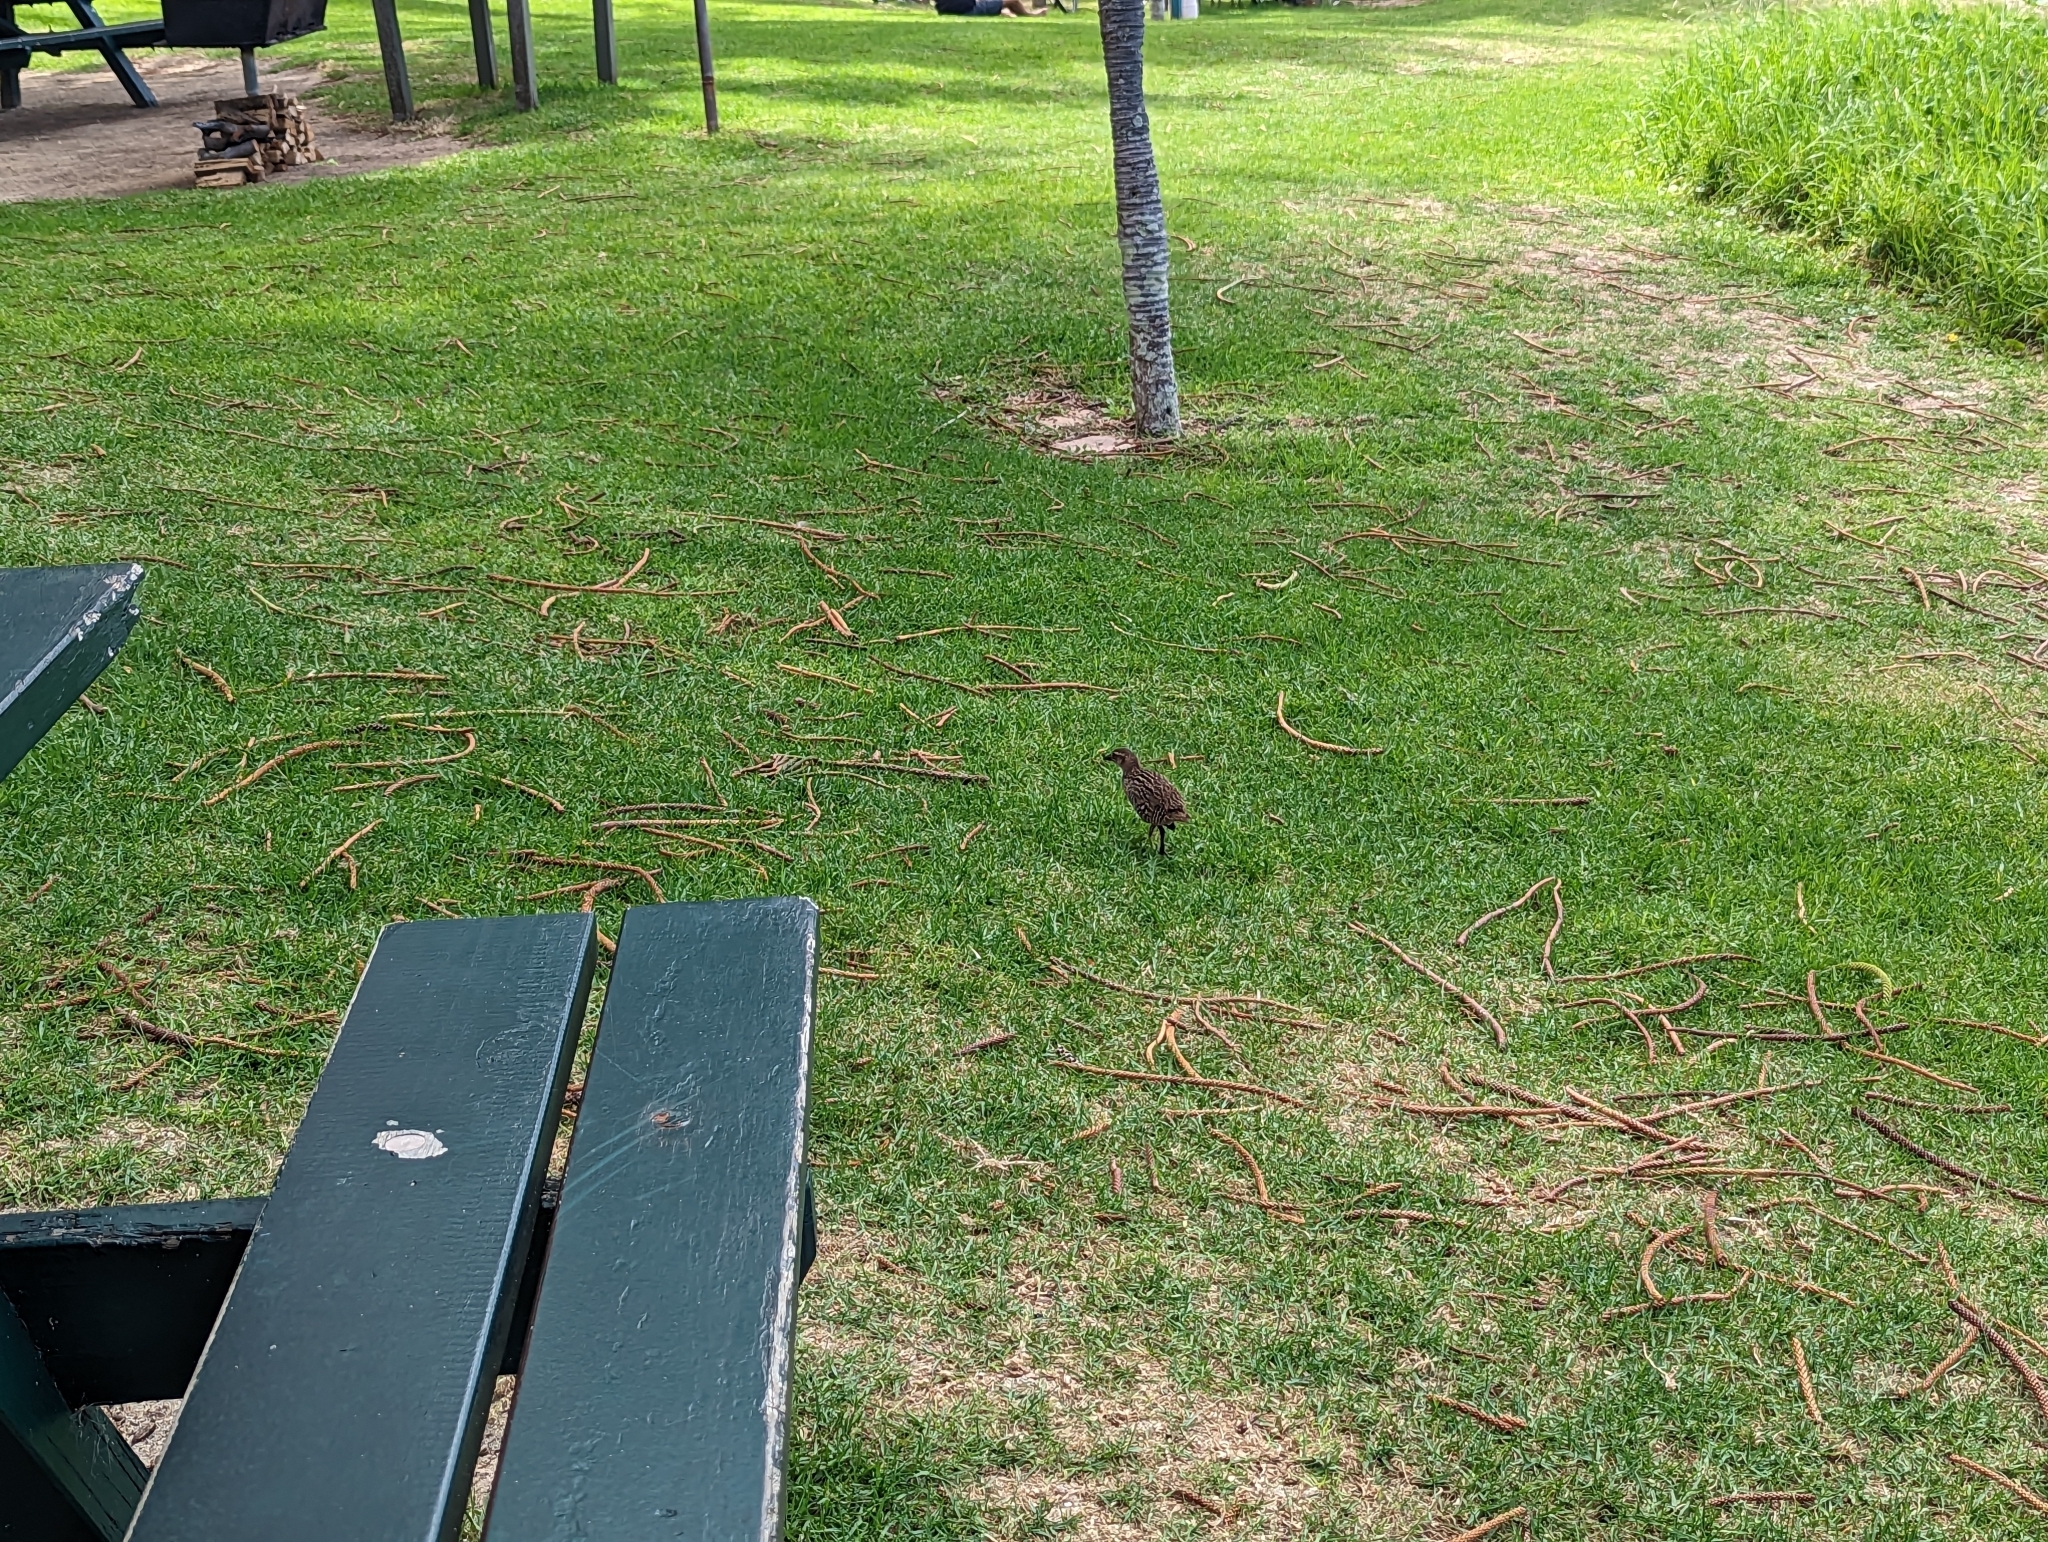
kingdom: Animalia
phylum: Chordata
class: Aves
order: Gruiformes
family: Rallidae
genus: Gallirallus
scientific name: Gallirallus philippensis
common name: Buff-banded rail
